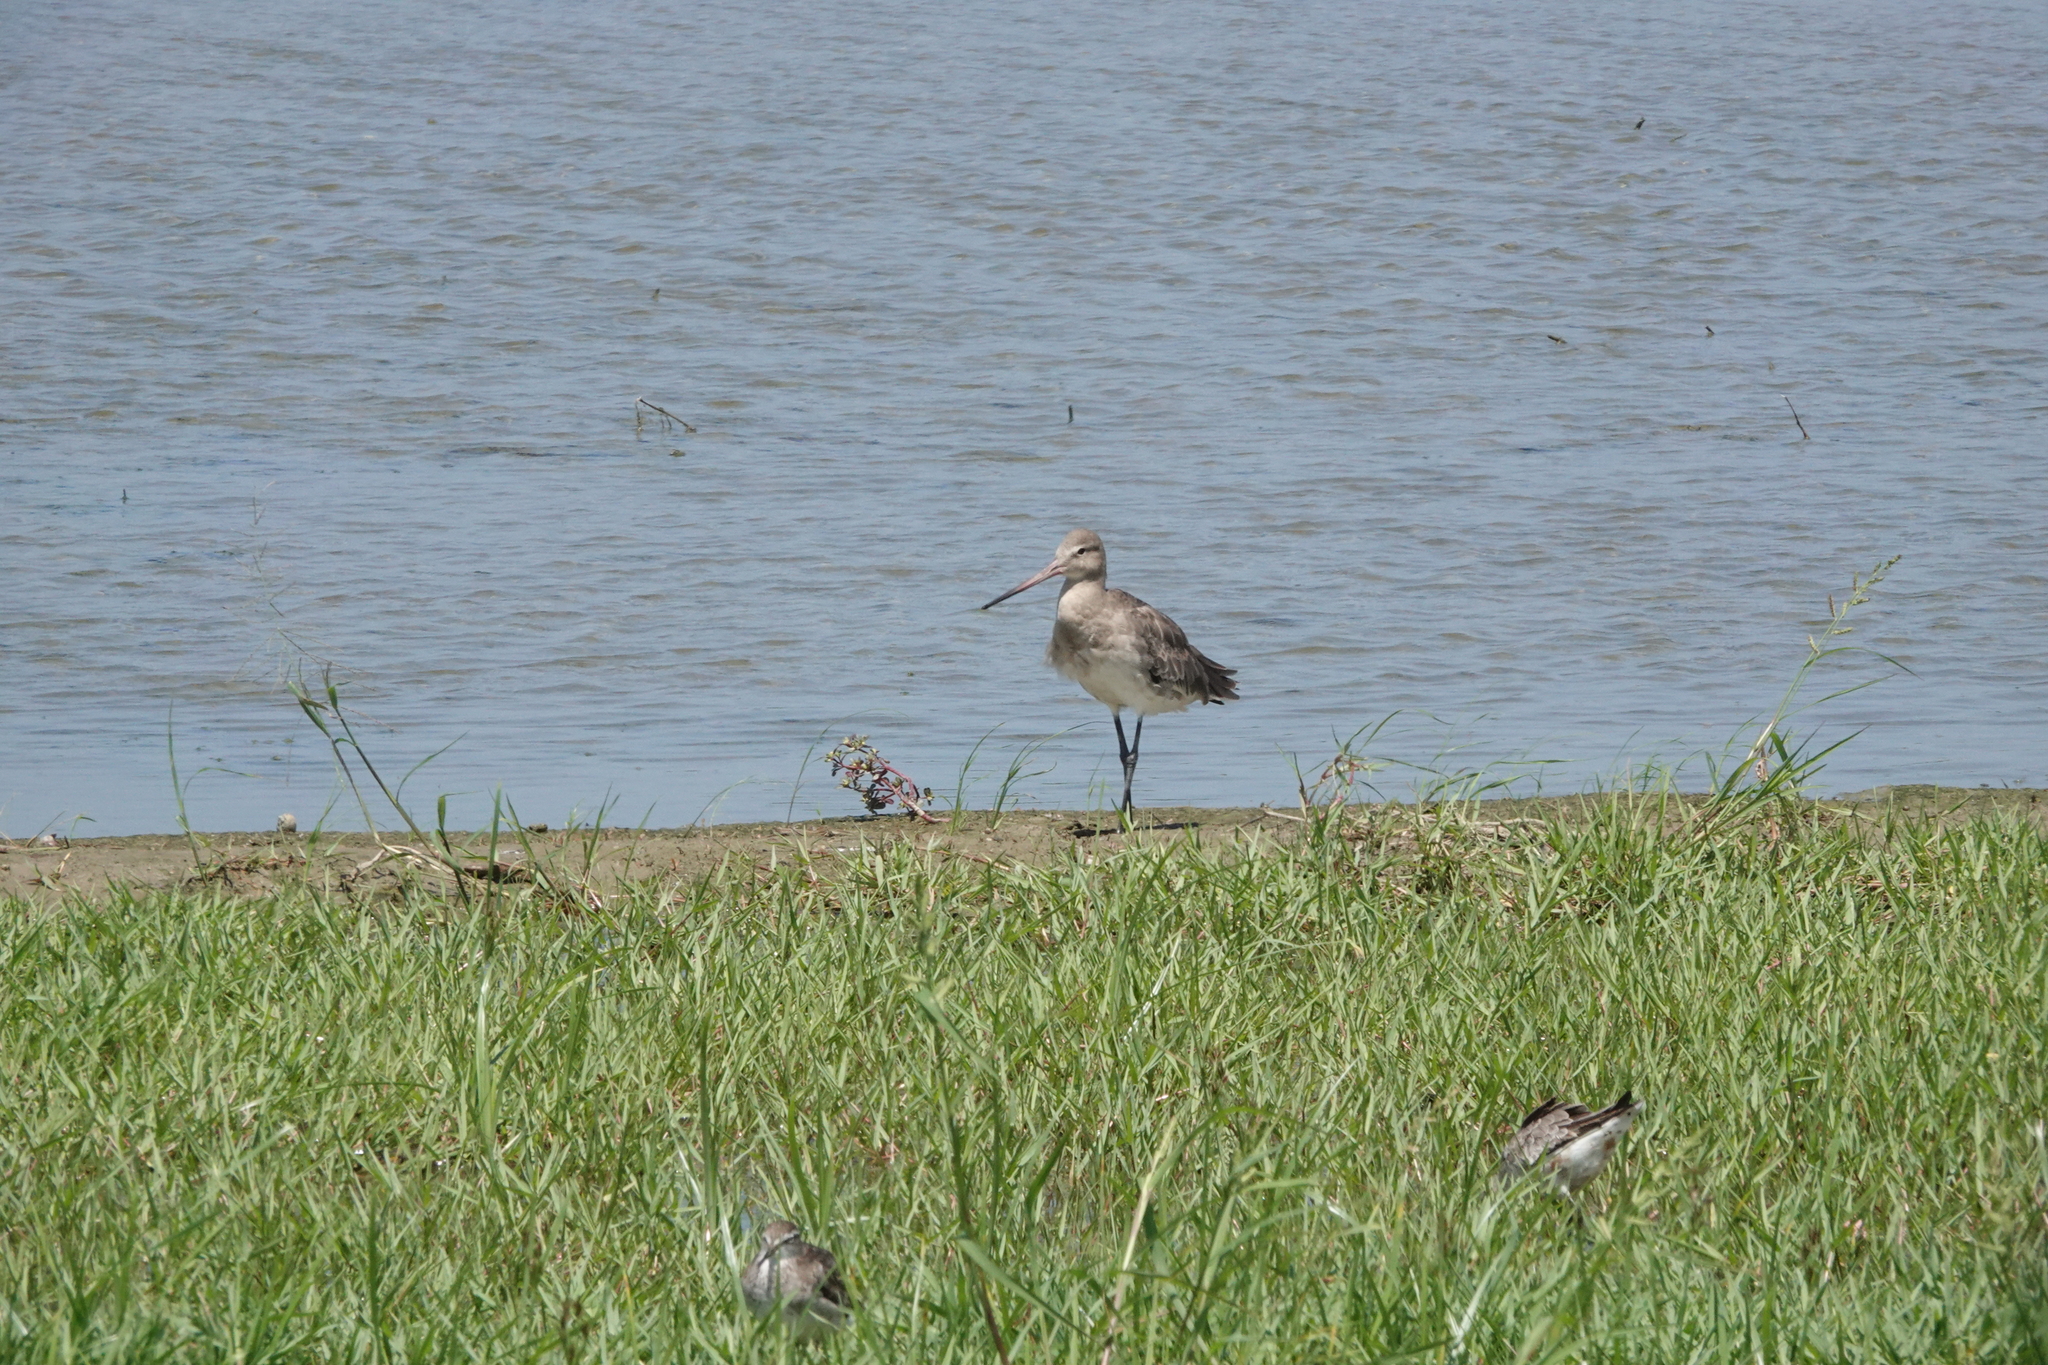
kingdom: Animalia
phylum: Chordata
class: Aves
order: Charadriiformes
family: Scolopacidae
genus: Limosa
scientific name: Limosa limosa
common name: Black-tailed godwit
